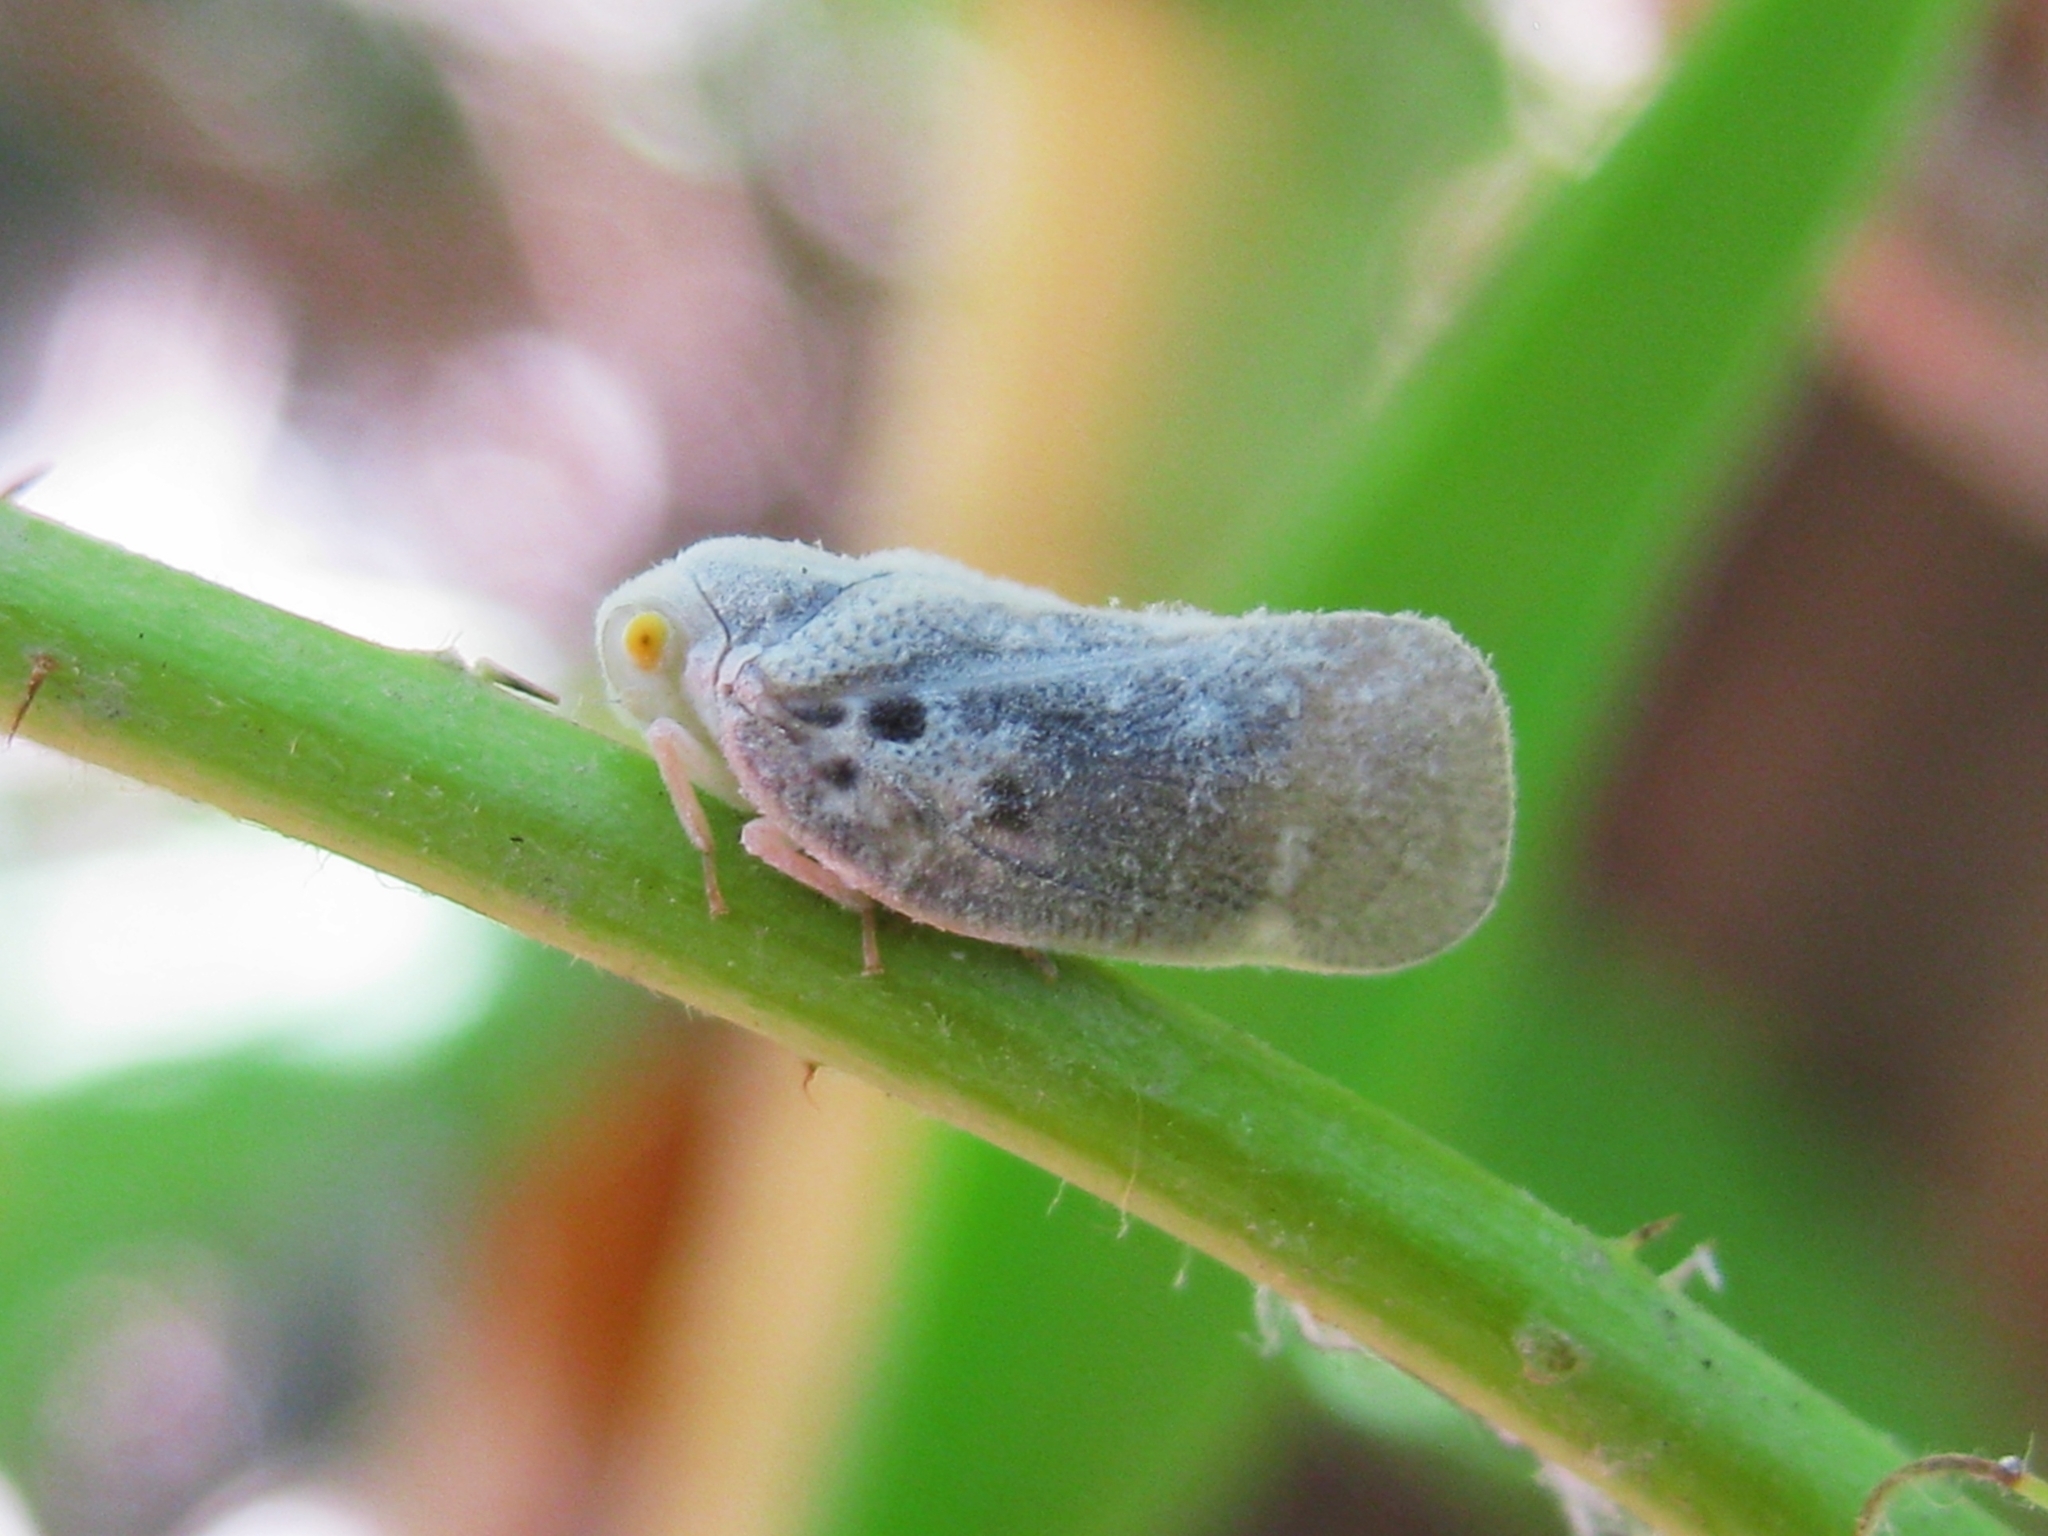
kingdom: Animalia
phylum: Arthropoda
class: Insecta
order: Hemiptera
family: Flatidae
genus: Metcalfa
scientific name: Metcalfa pruinosa
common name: Citrus flatid planthopper
